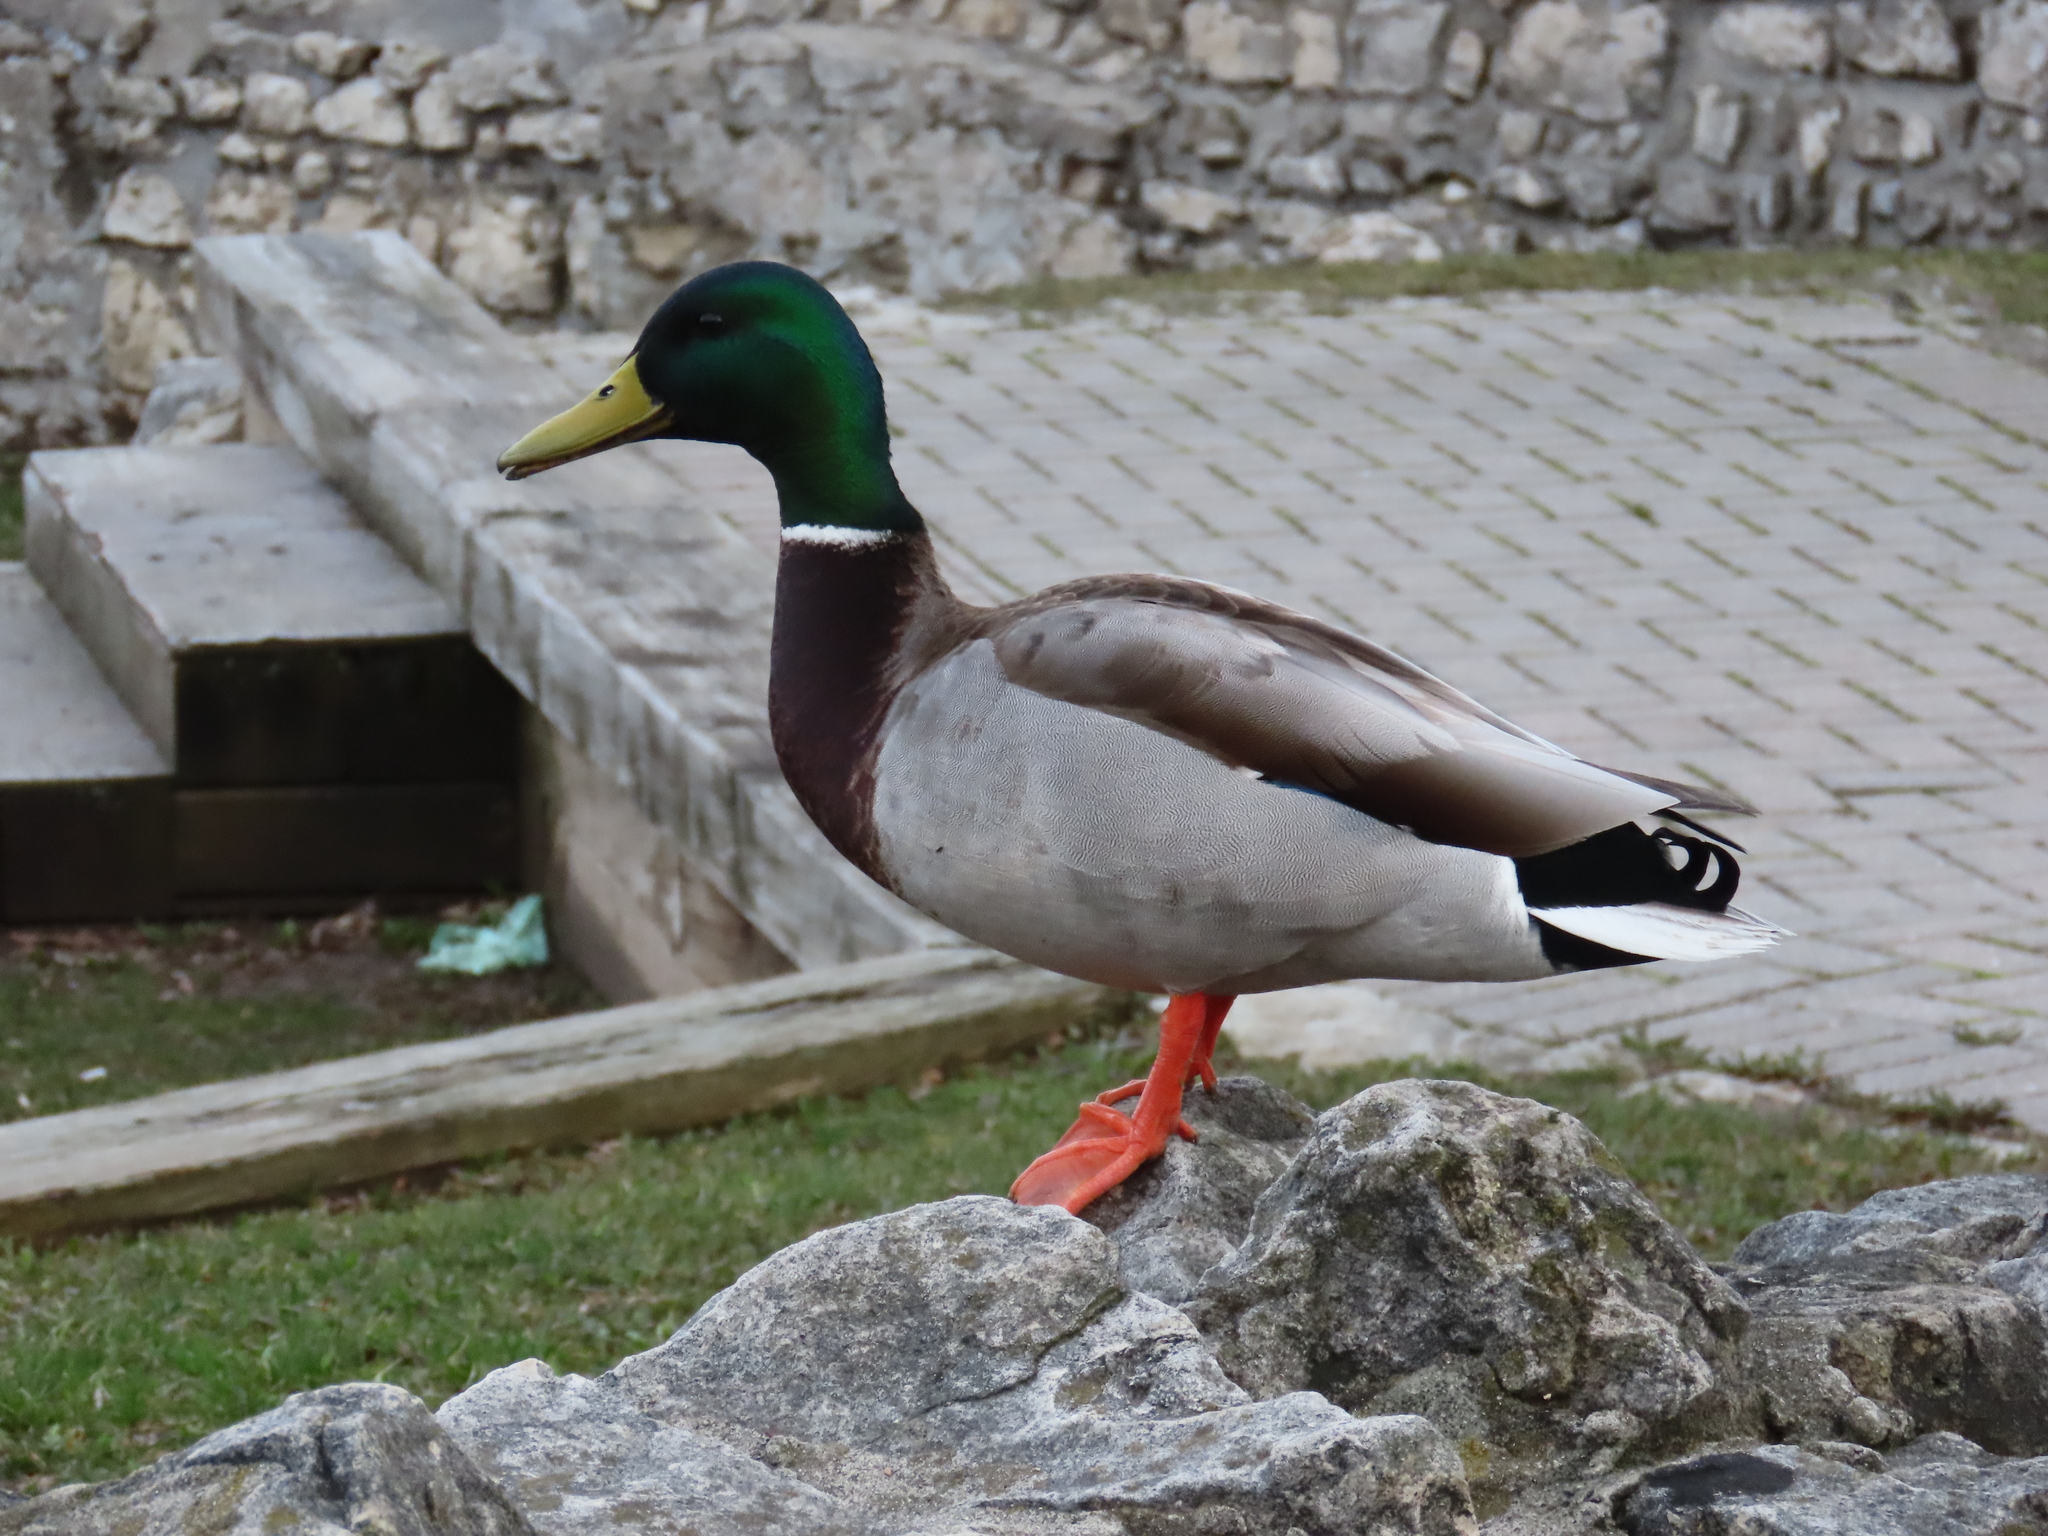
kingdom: Animalia
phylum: Chordata
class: Aves
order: Anseriformes
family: Anatidae
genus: Anas
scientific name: Anas platyrhynchos
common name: Mallard
